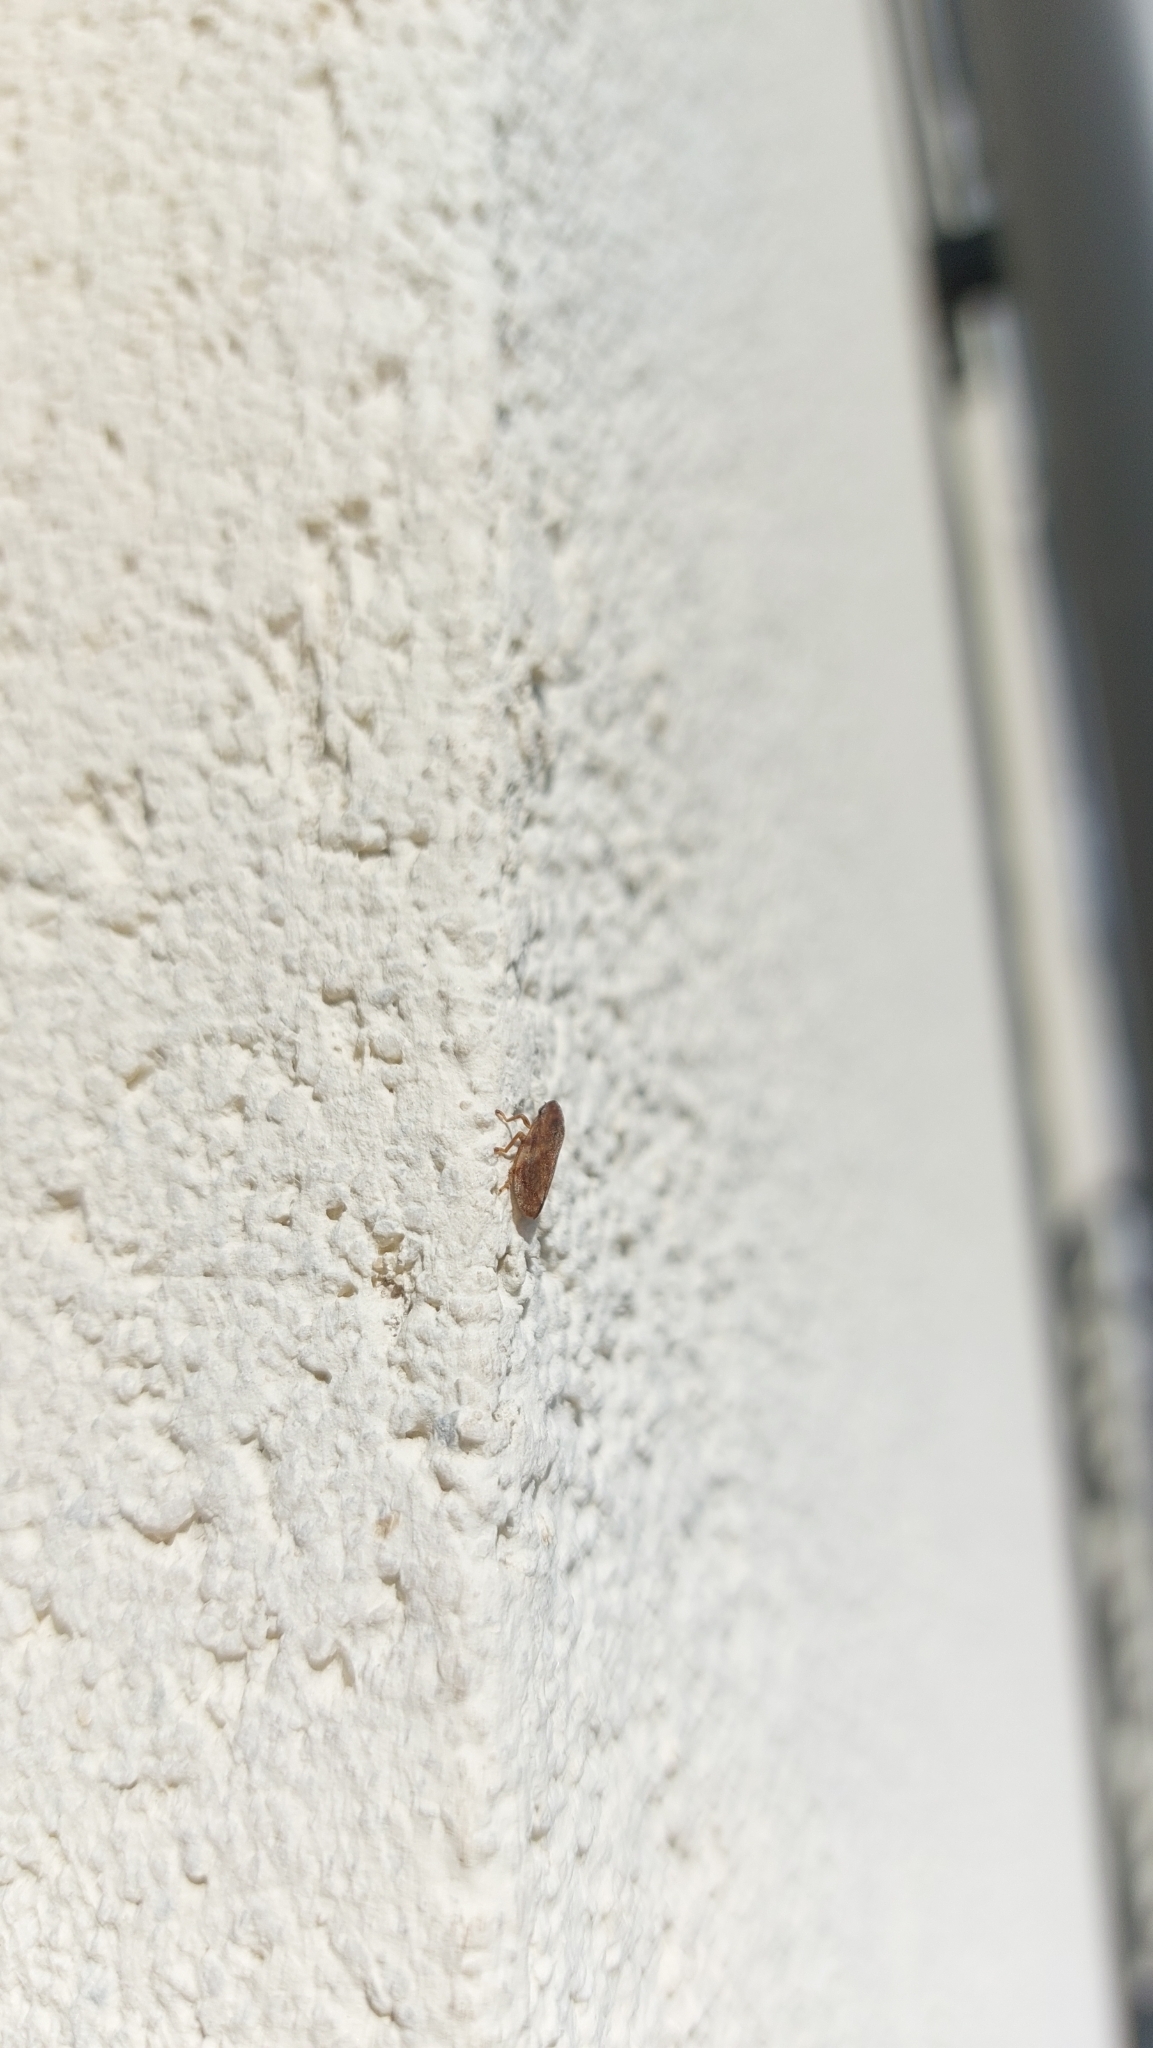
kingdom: Animalia
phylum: Arthropoda
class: Insecta
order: Hemiptera
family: Aphrophoridae
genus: Philaenus
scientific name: Philaenus spumarius
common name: Meadow spittlebug
